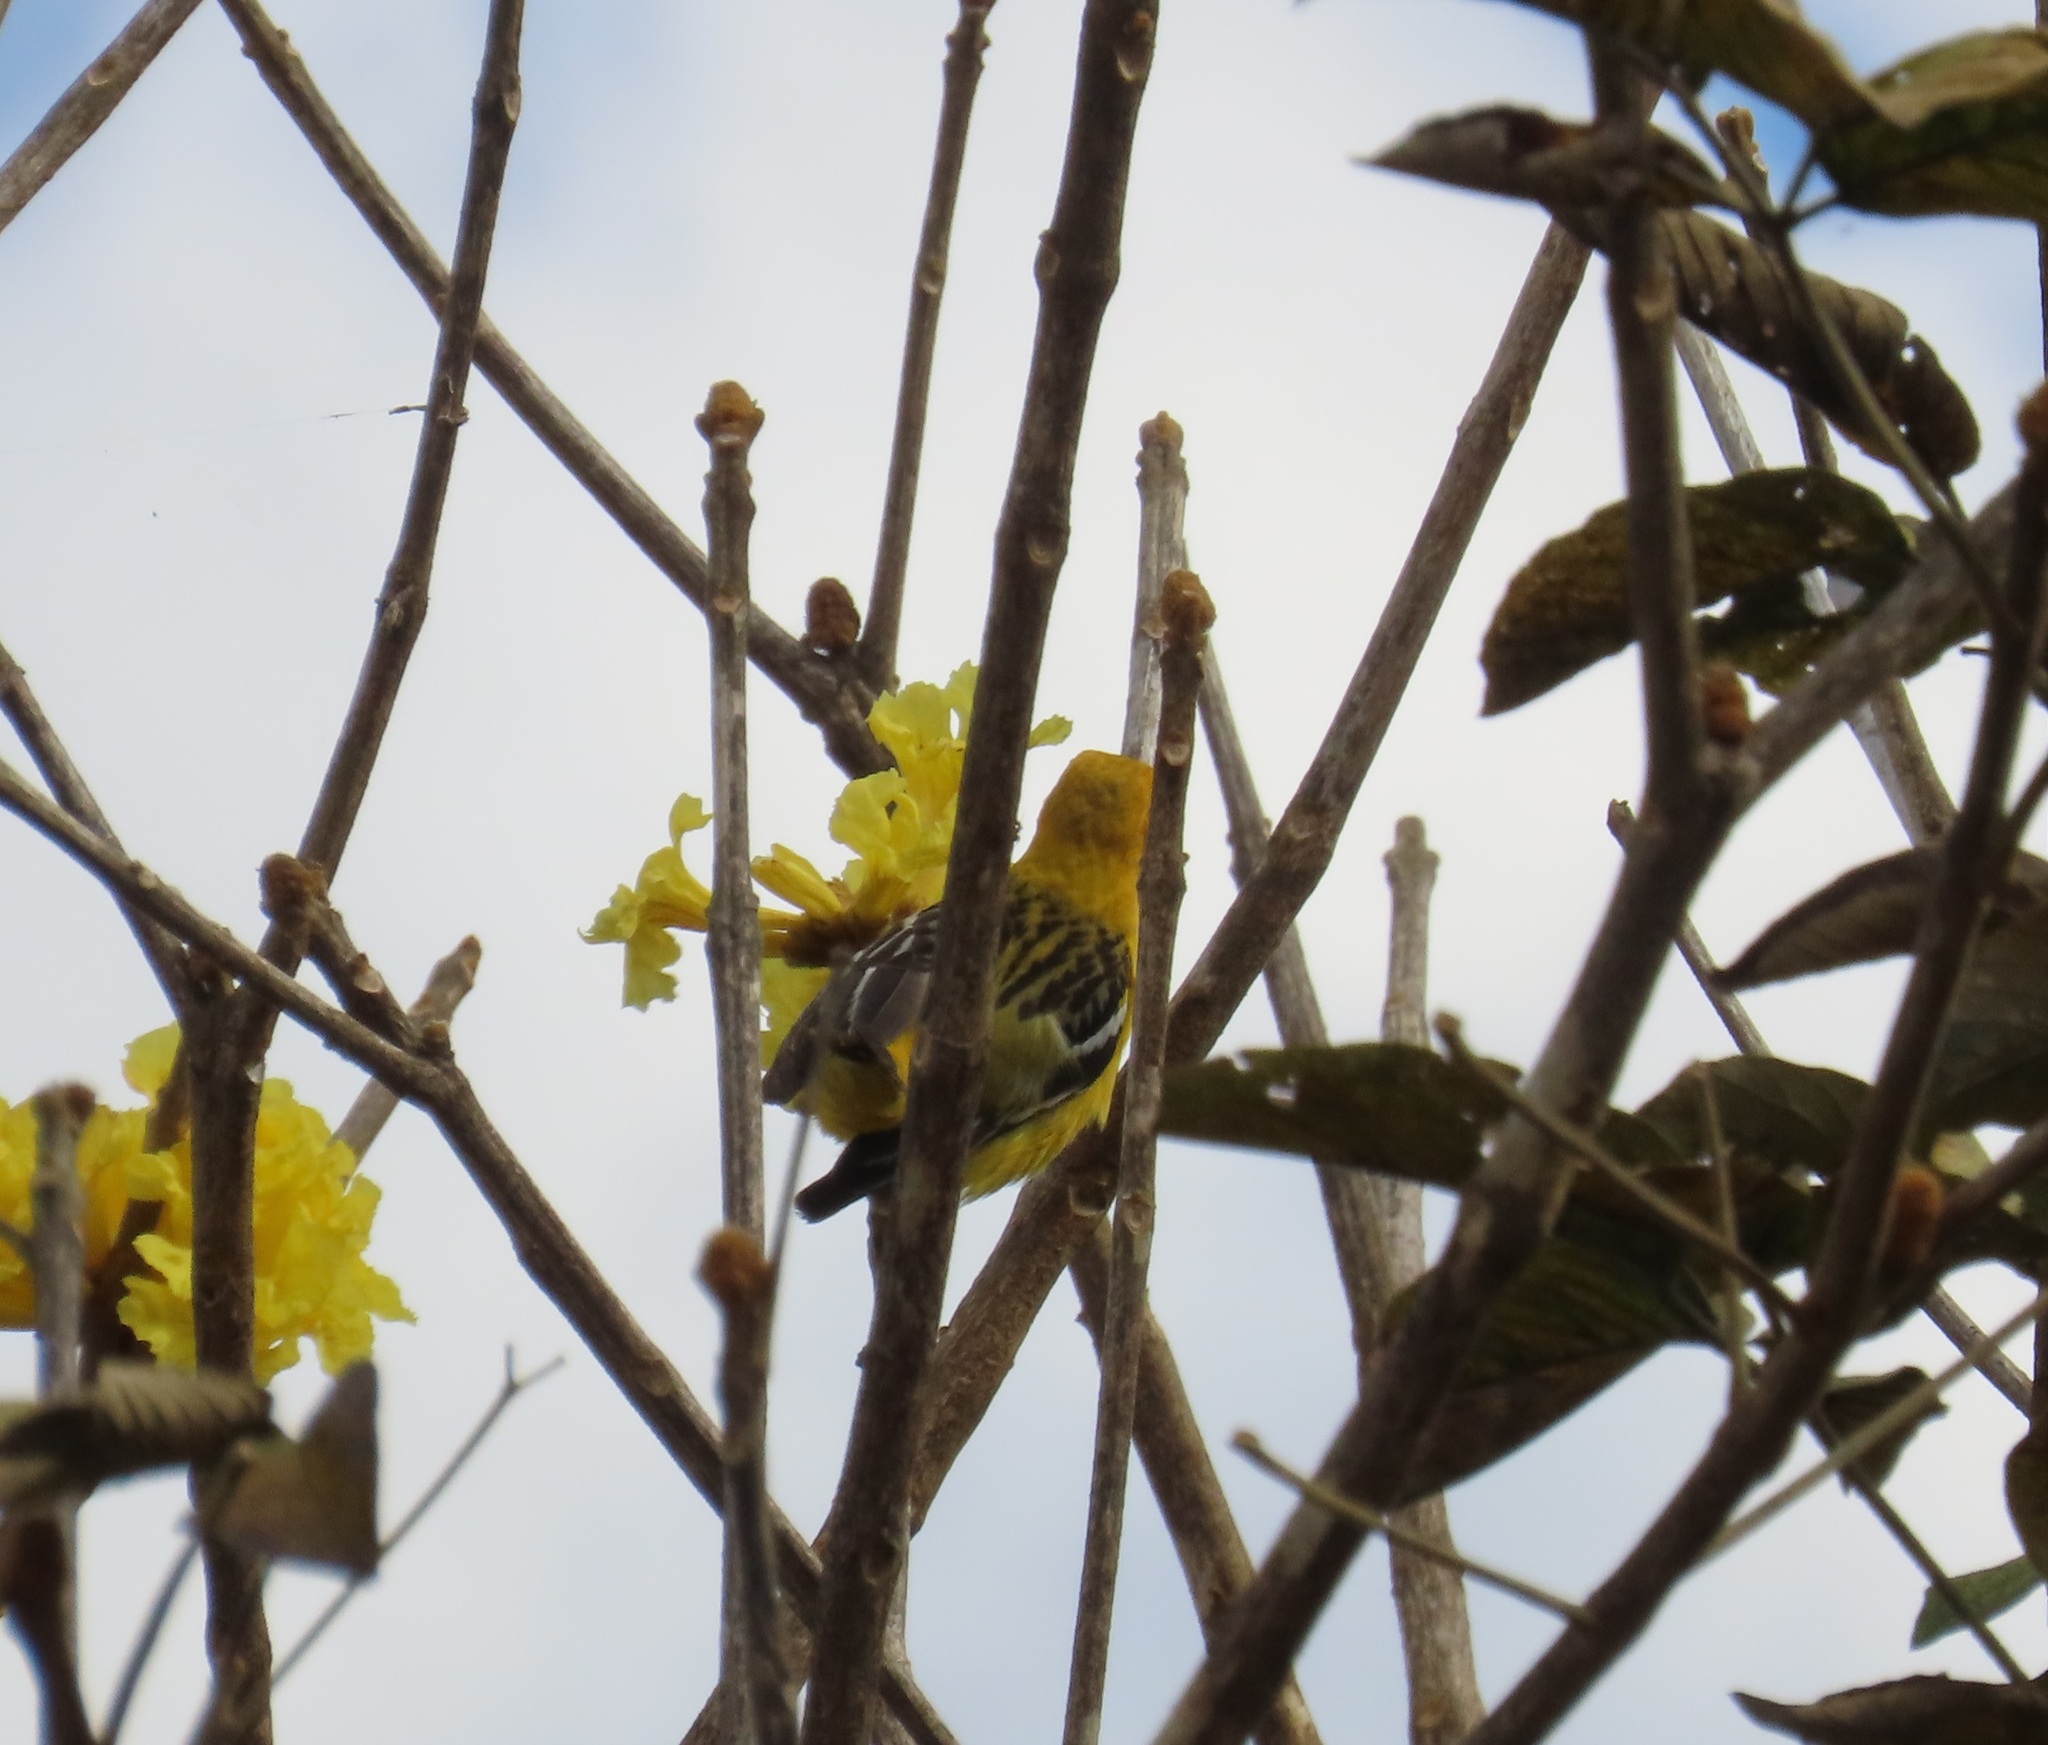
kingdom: Animalia
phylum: Chordata
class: Aves
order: Passeriformes
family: Icteridae
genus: Icterus
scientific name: Icterus pustulatus
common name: Streak-backed oriole
